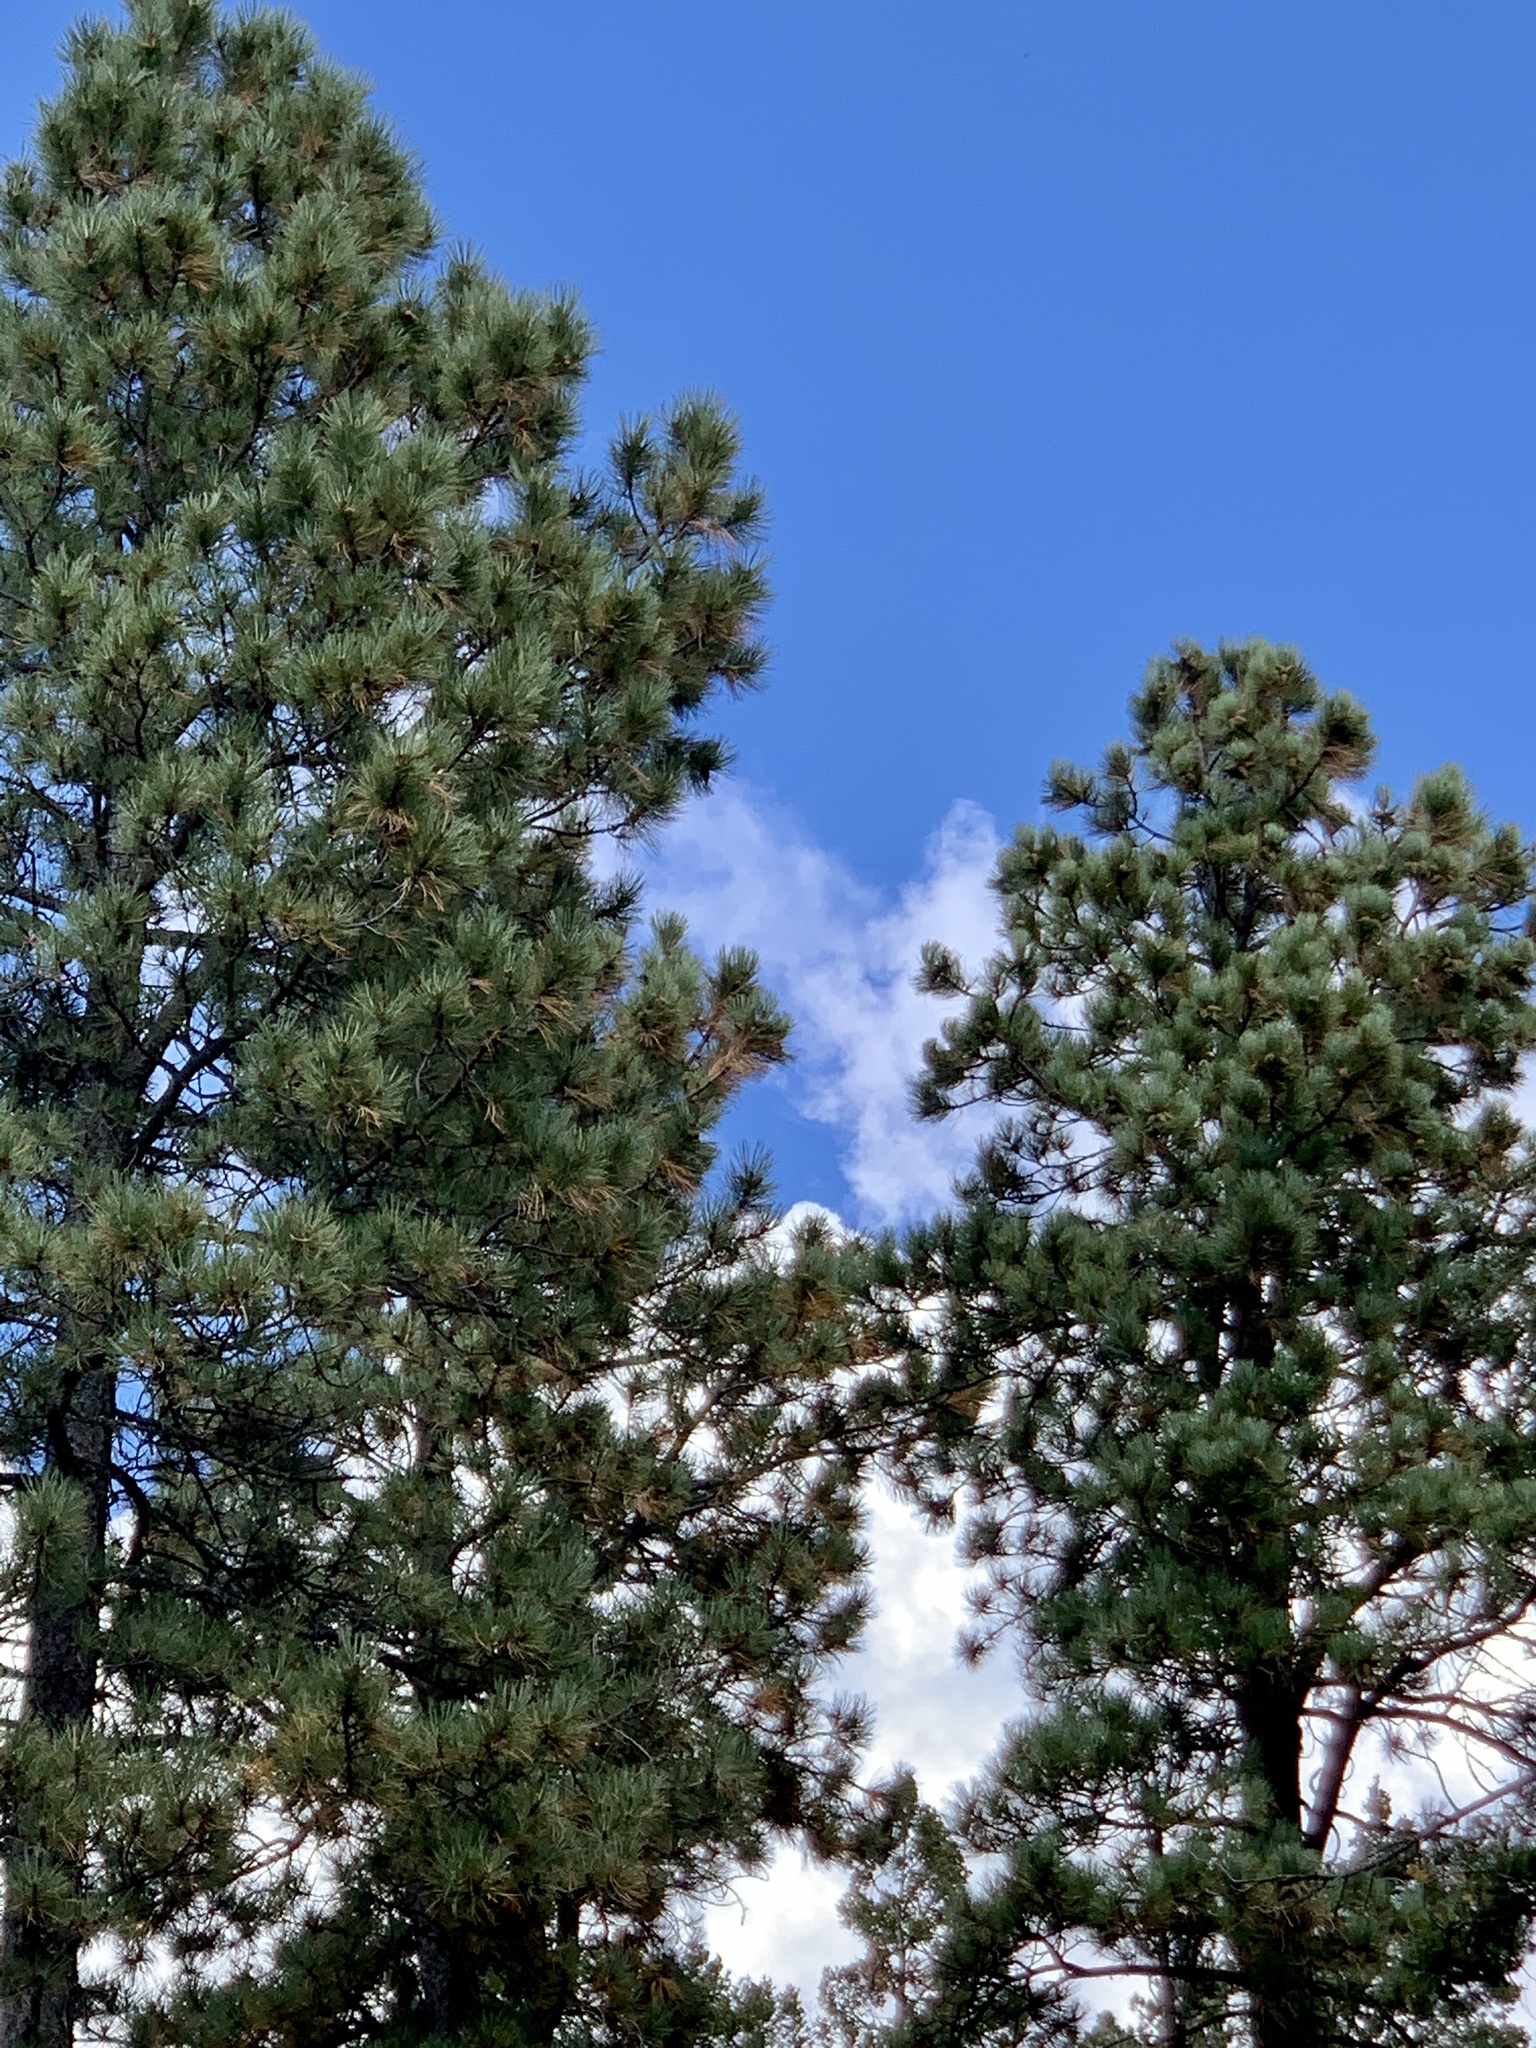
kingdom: Plantae
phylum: Tracheophyta
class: Pinopsida
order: Pinales
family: Pinaceae
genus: Pinus
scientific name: Pinus ponderosa
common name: Western yellow-pine
